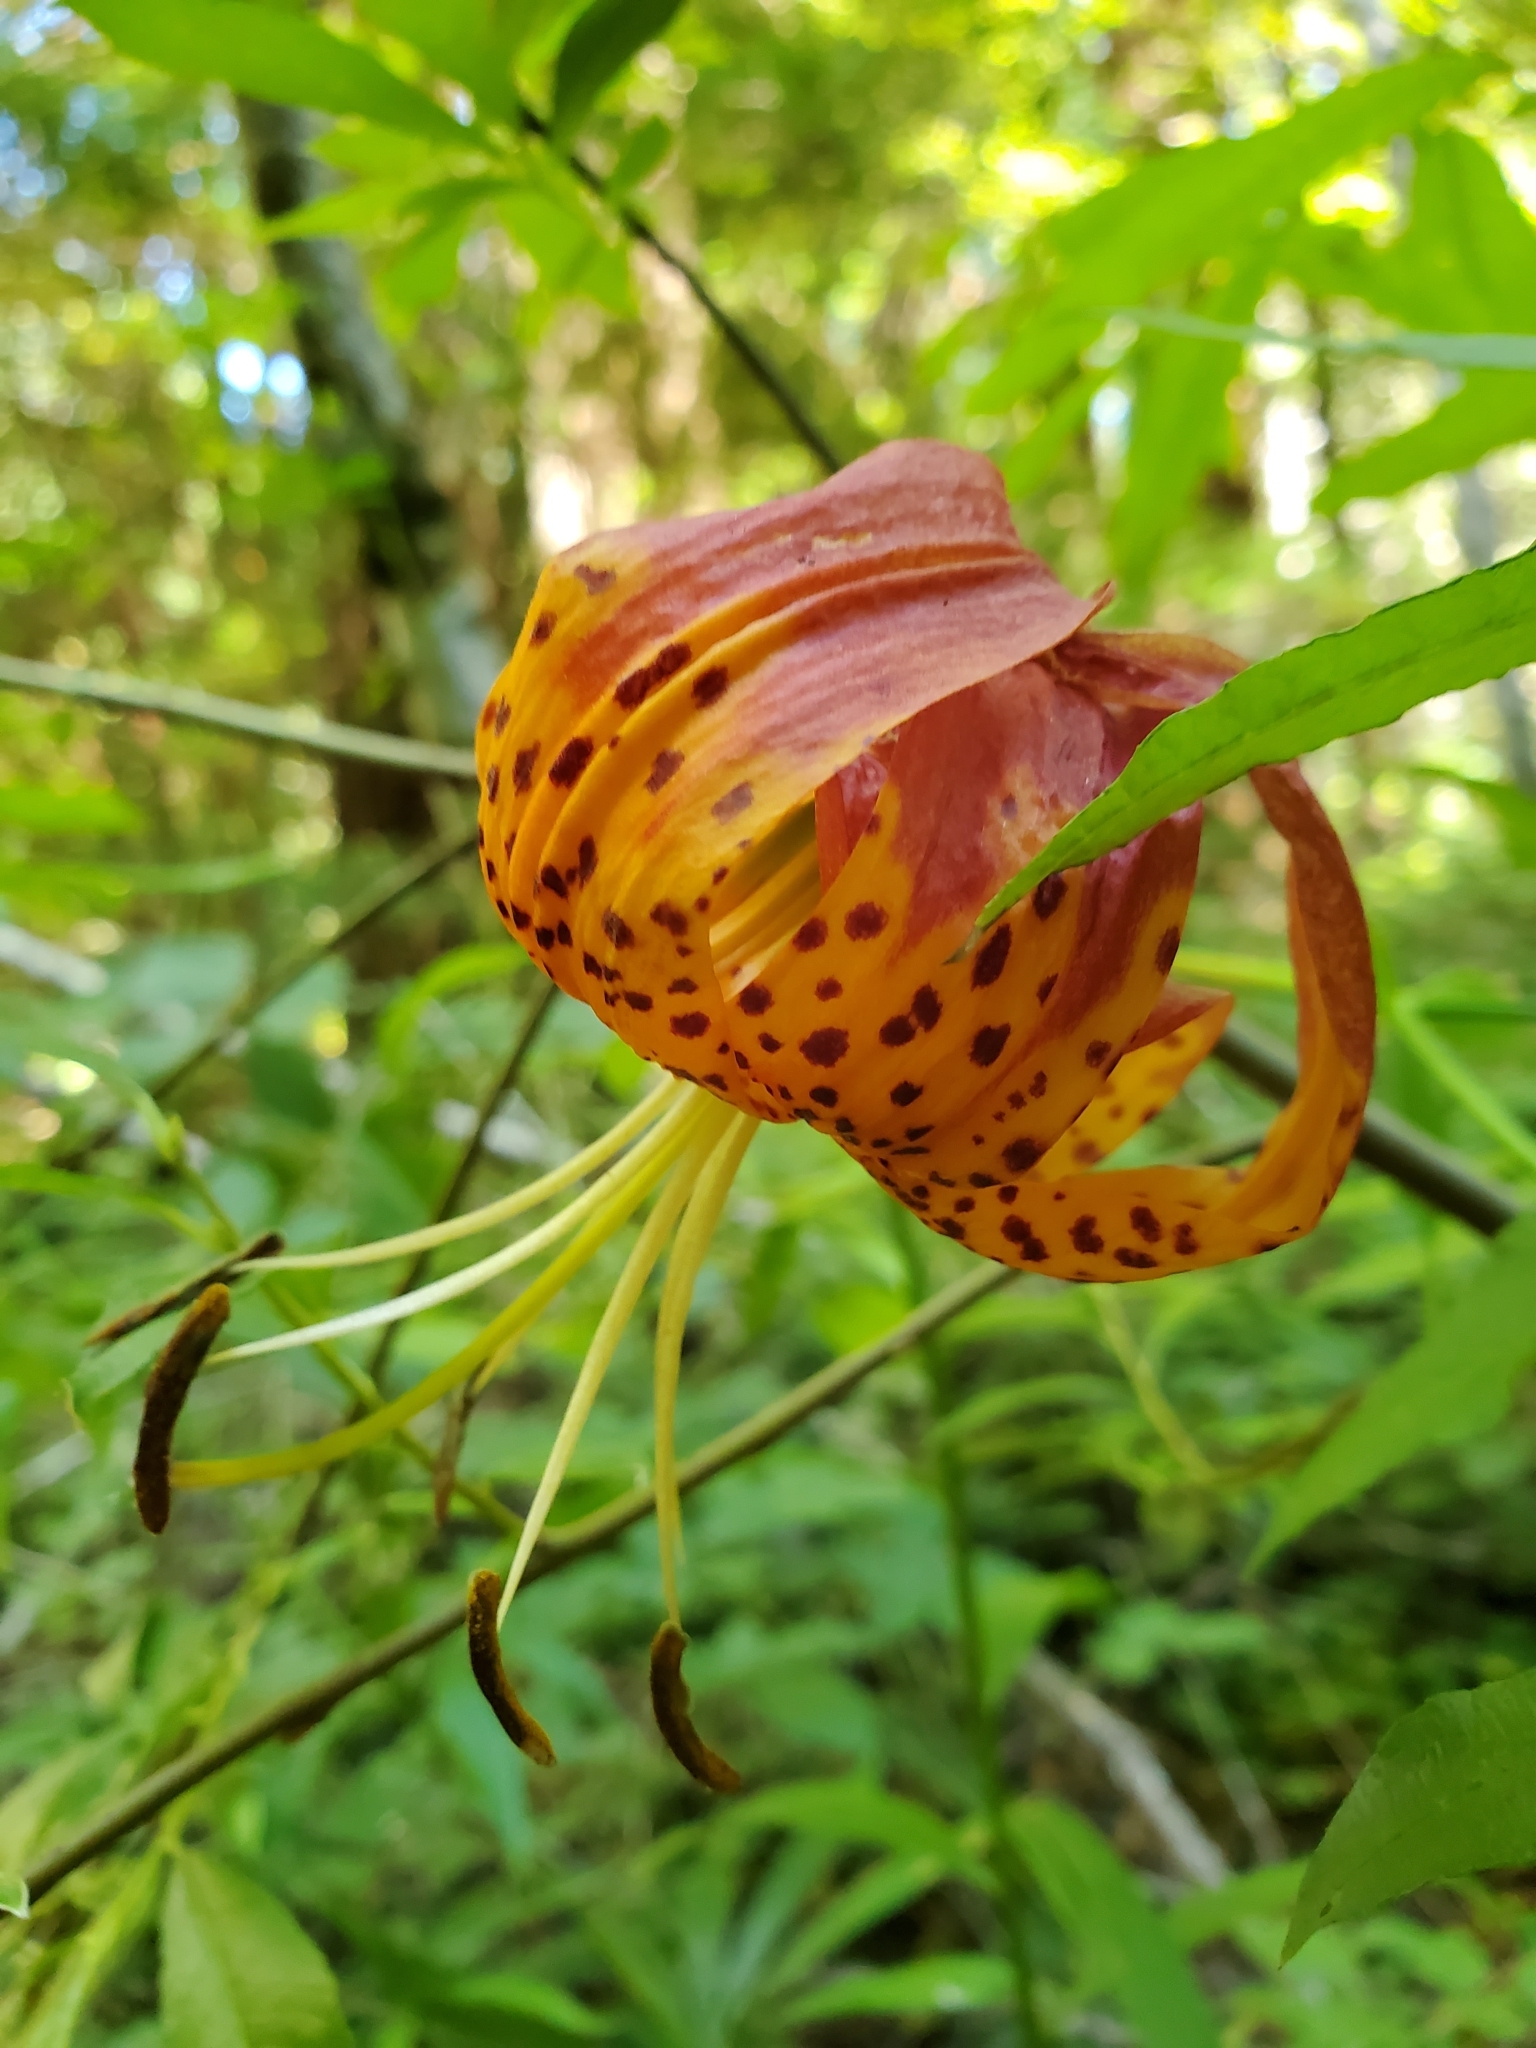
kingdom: Plantae
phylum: Tracheophyta
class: Liliopsida
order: Liliales
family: Liliaceae
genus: Lilium
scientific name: Lilium pardalinum
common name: Panther lily
